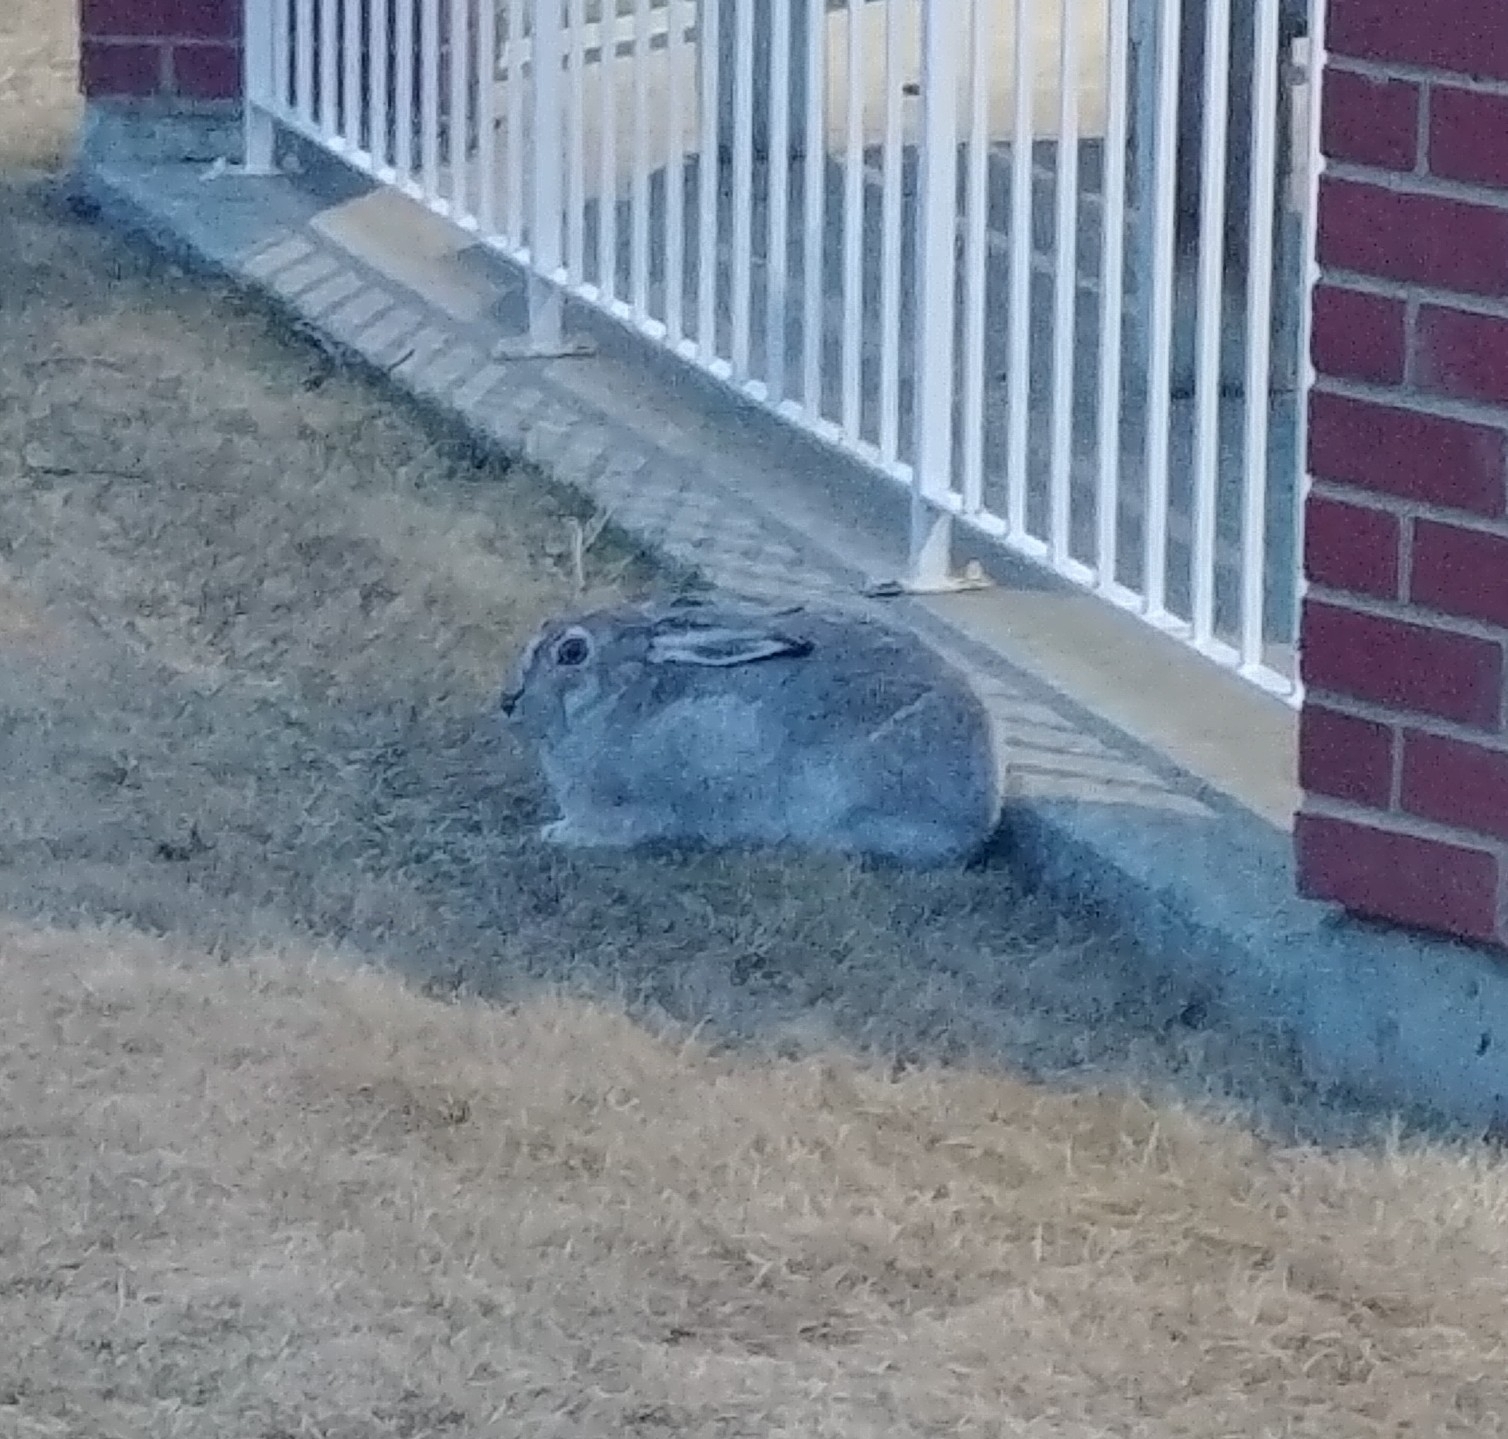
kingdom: Animalia
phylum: Chordata
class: Mammalia
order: Lagomorpha
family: Leporidae
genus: Lepus
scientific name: Lepus townsendii
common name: White-tailed jackrabbit
